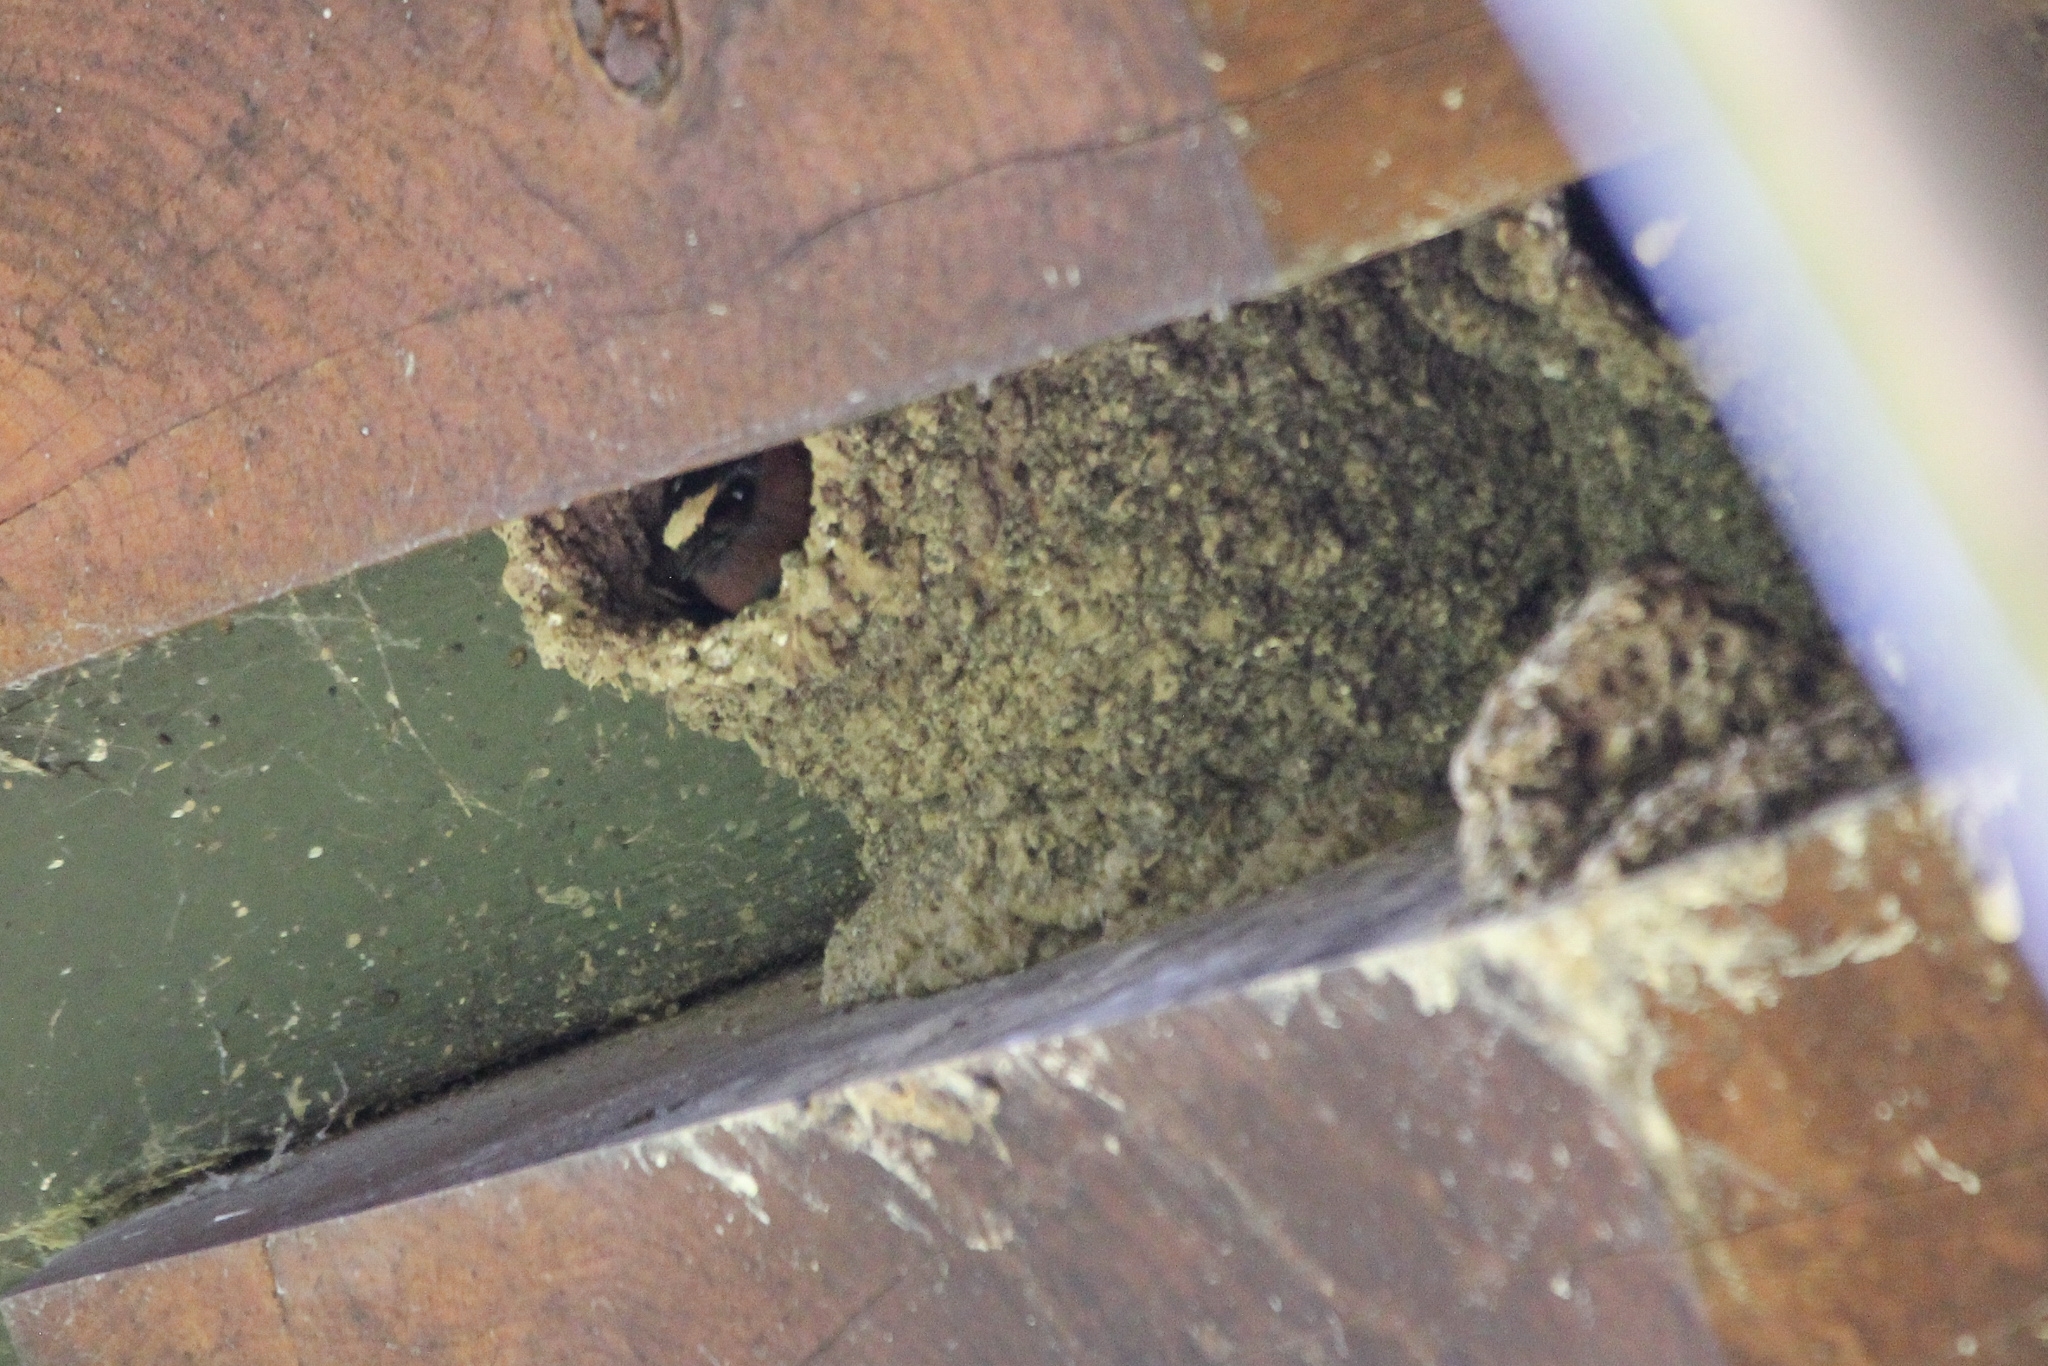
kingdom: Animalia
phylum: Chordata
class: Aves
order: Passeriformes
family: Hirundinidae
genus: Petrochelidon
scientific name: Petrochelidon pyrrhonota
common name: American cliff swallow
